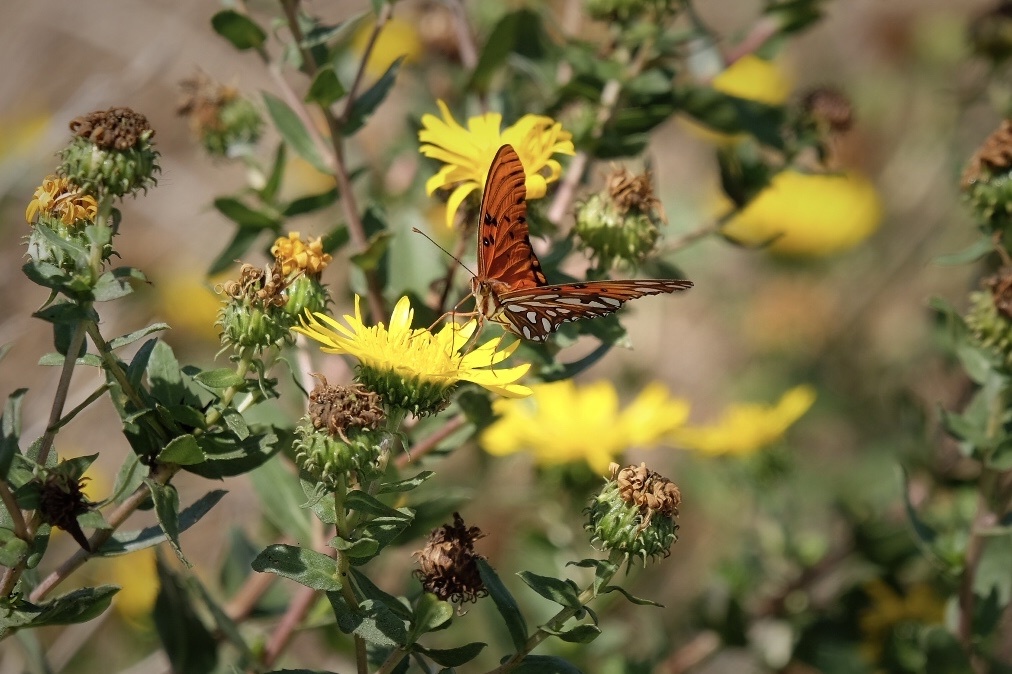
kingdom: Animalia
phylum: Arthropoda
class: Insecta
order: Lepidoptera
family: Nymphalidae
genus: Dione
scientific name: Dione vanillae
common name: Gulf fritillary
